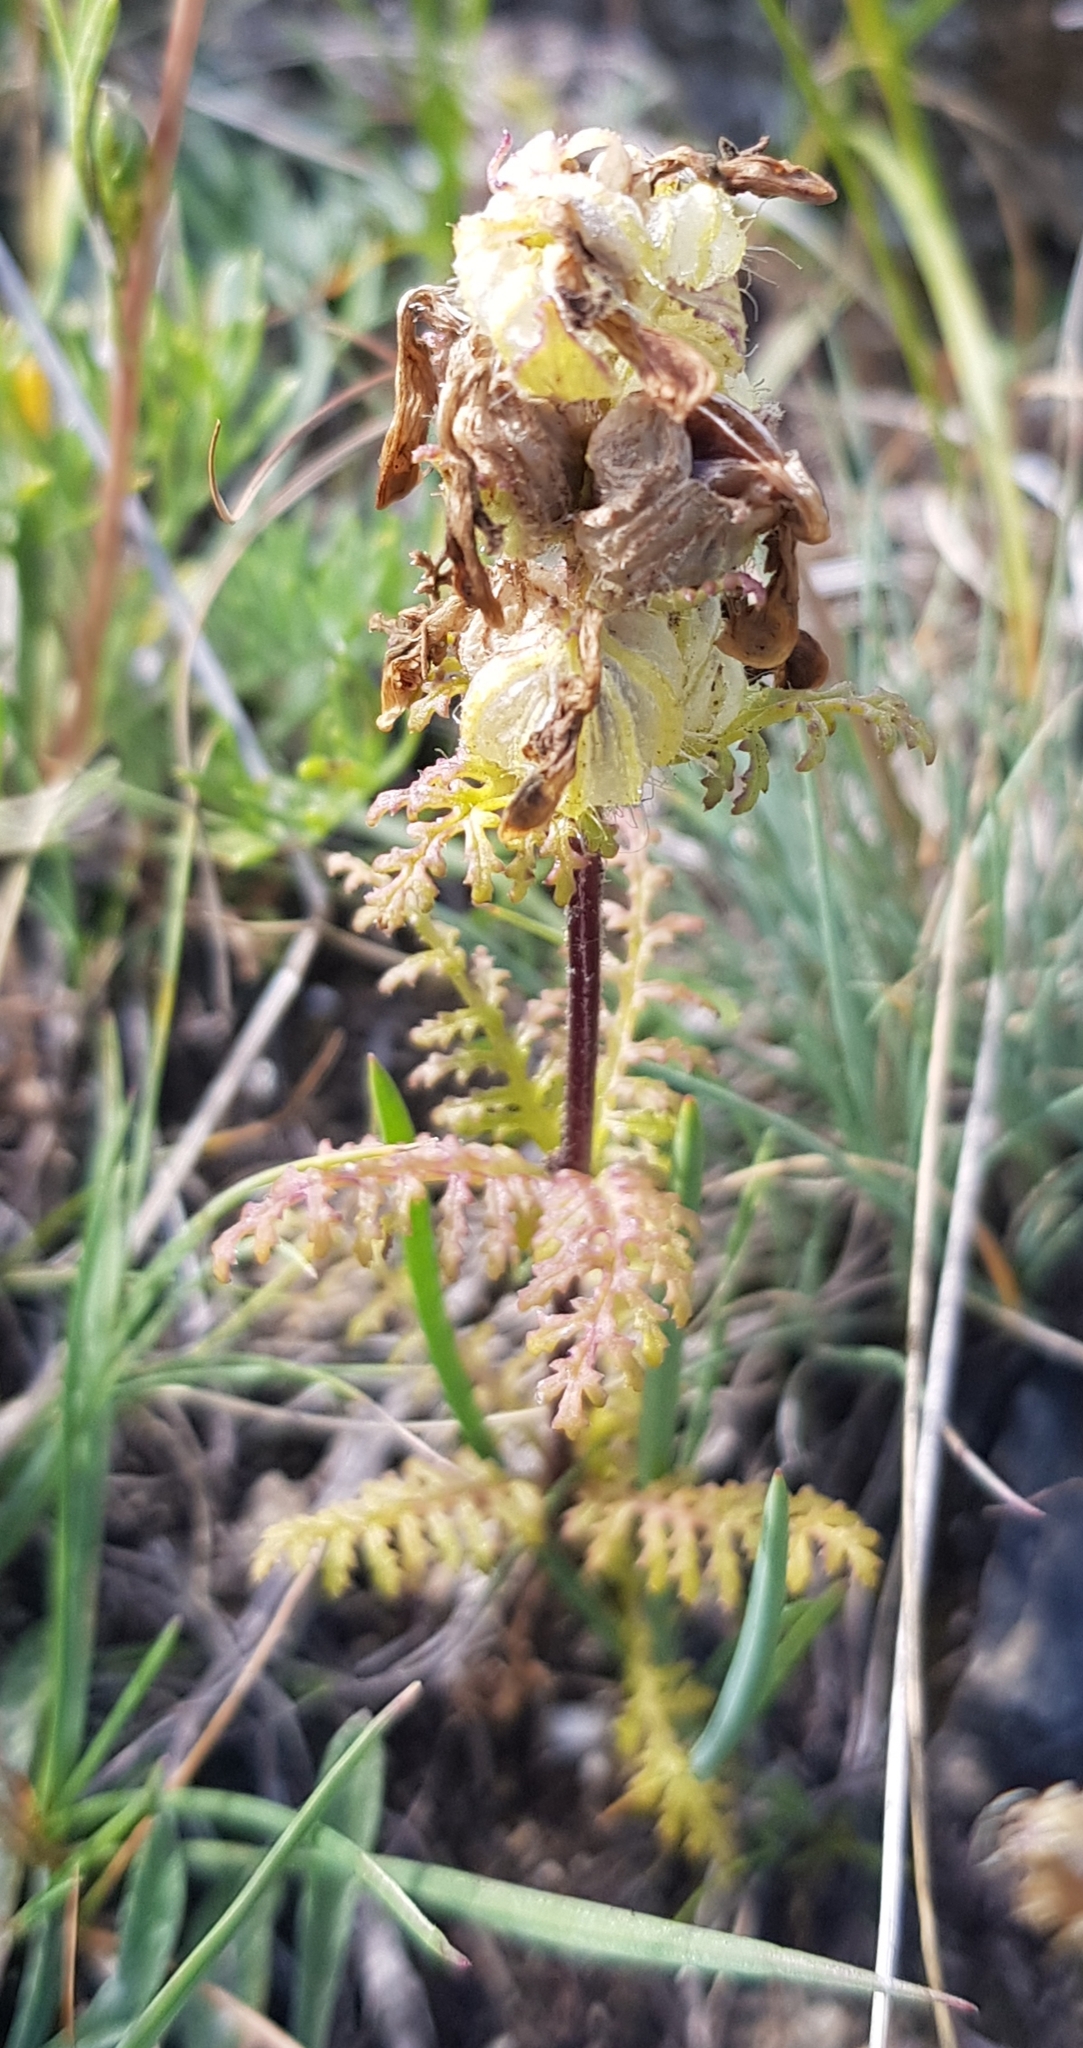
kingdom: Plantae
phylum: Tracheophyta
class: Magnoliopsida
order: Lamiales
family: Orobanchaceae
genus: Pedicularis
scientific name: Pedicularis myriophylla
